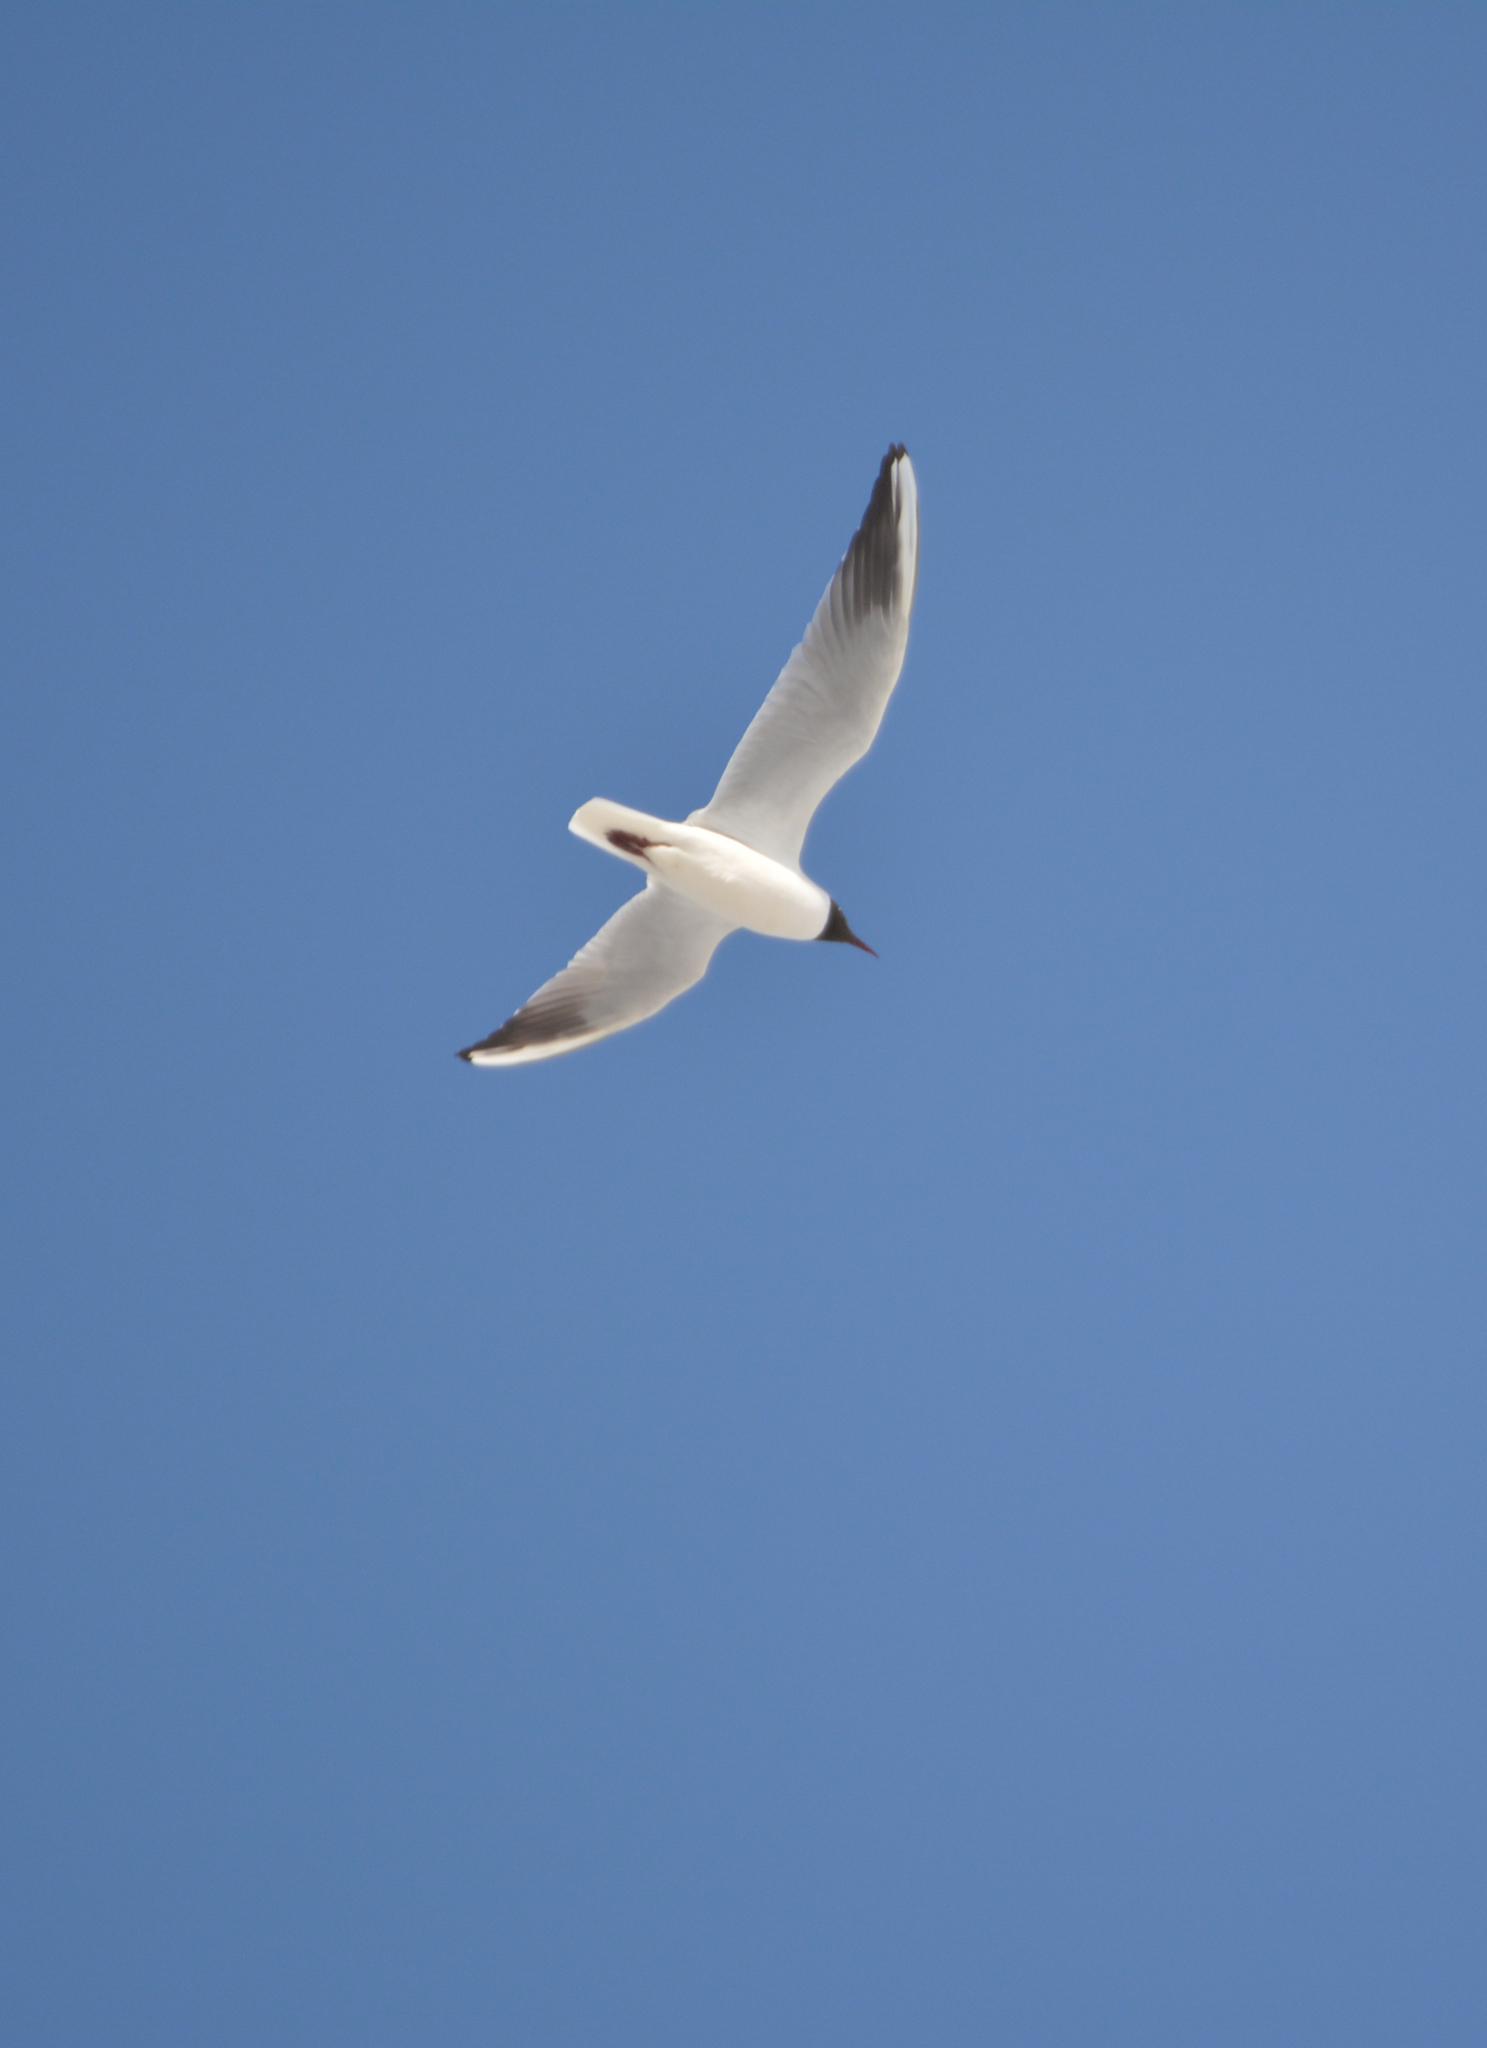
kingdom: Animalia
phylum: Chordata
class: Aves
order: Charadriiformes
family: Laridae
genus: Chroicocephalus
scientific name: Chroicocephalus ridibundus
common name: Black-headed gull
